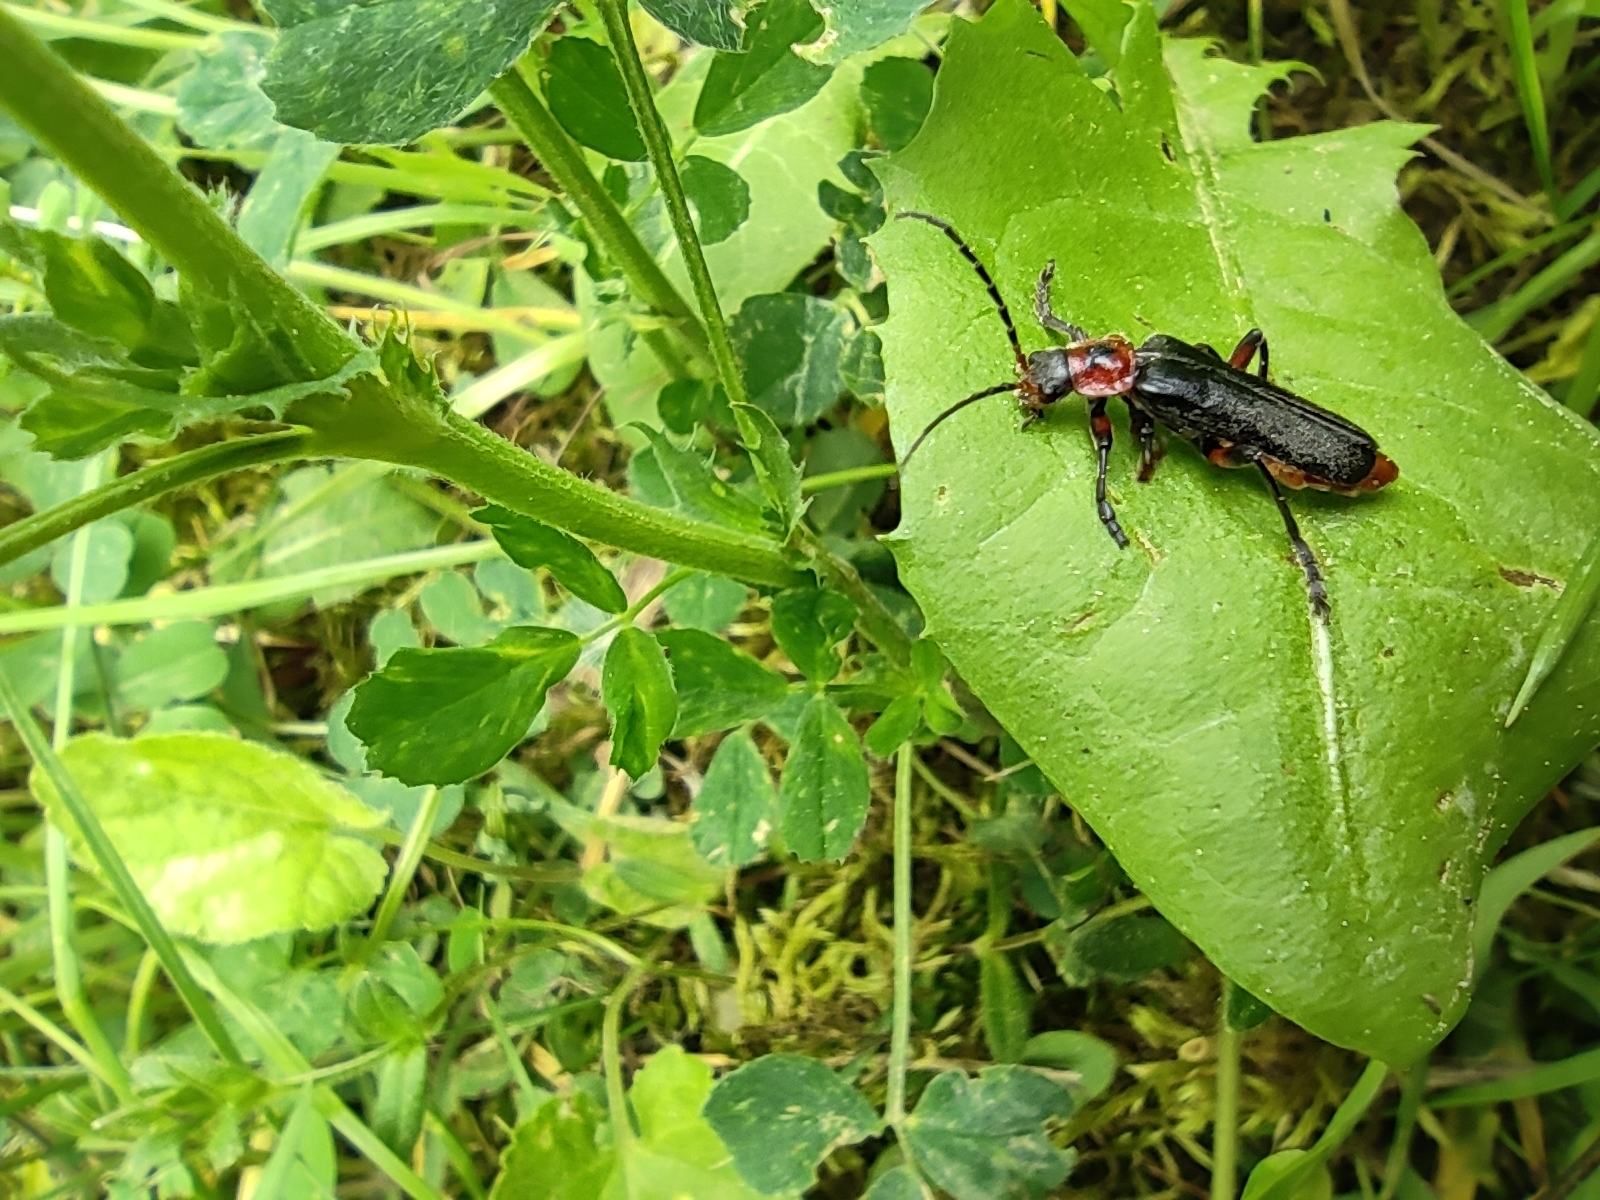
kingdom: Animalia
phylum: Arthropoda
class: Insecta
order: Coleoptera
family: Cantharidae
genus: Cantharis
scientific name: Cantharis rustica
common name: Soldier beetle
